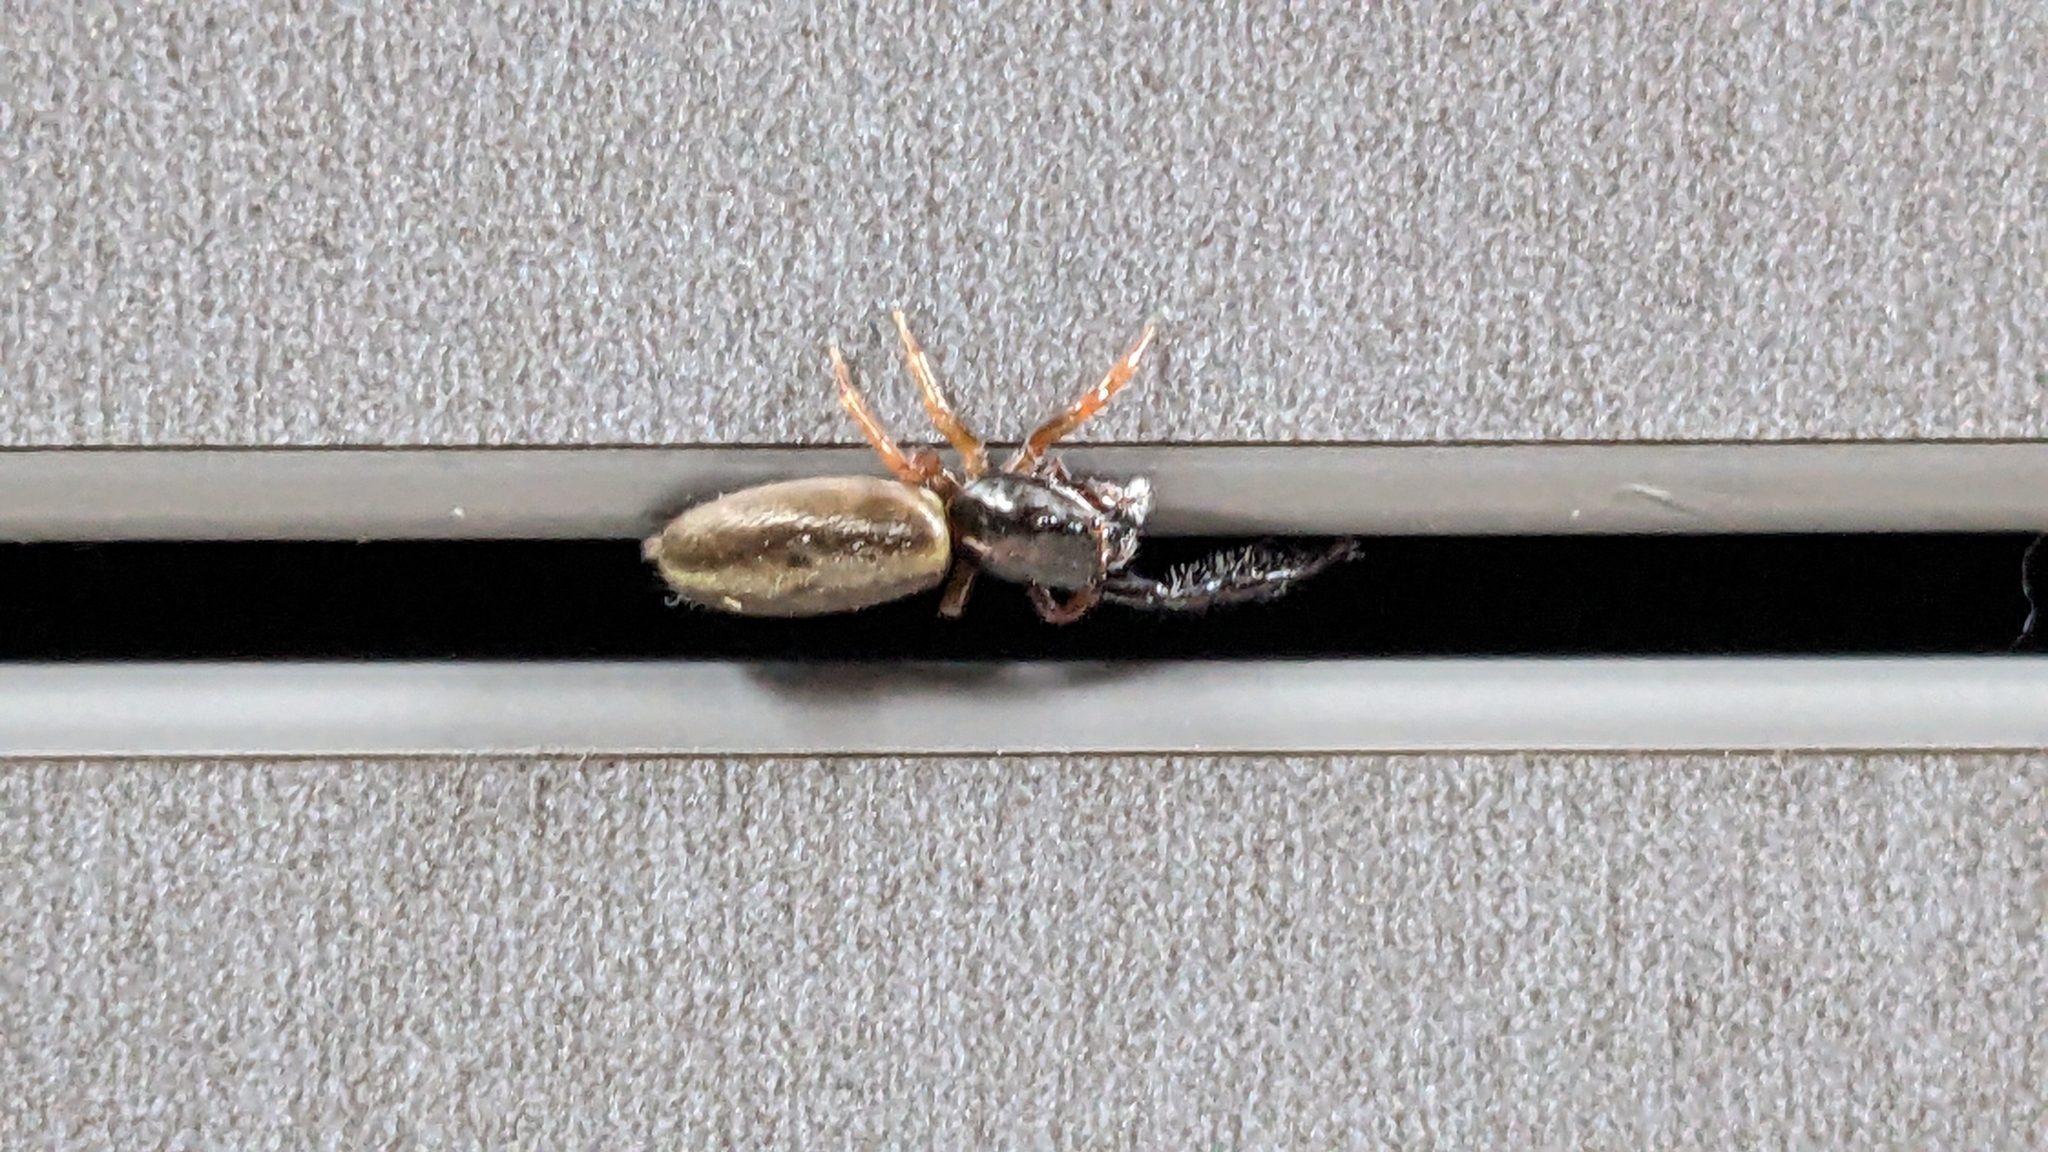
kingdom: Animalia
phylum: Arthropoda
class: Arachnida
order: Araneae
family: Salticidae
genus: Trite
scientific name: Trite planiceps
